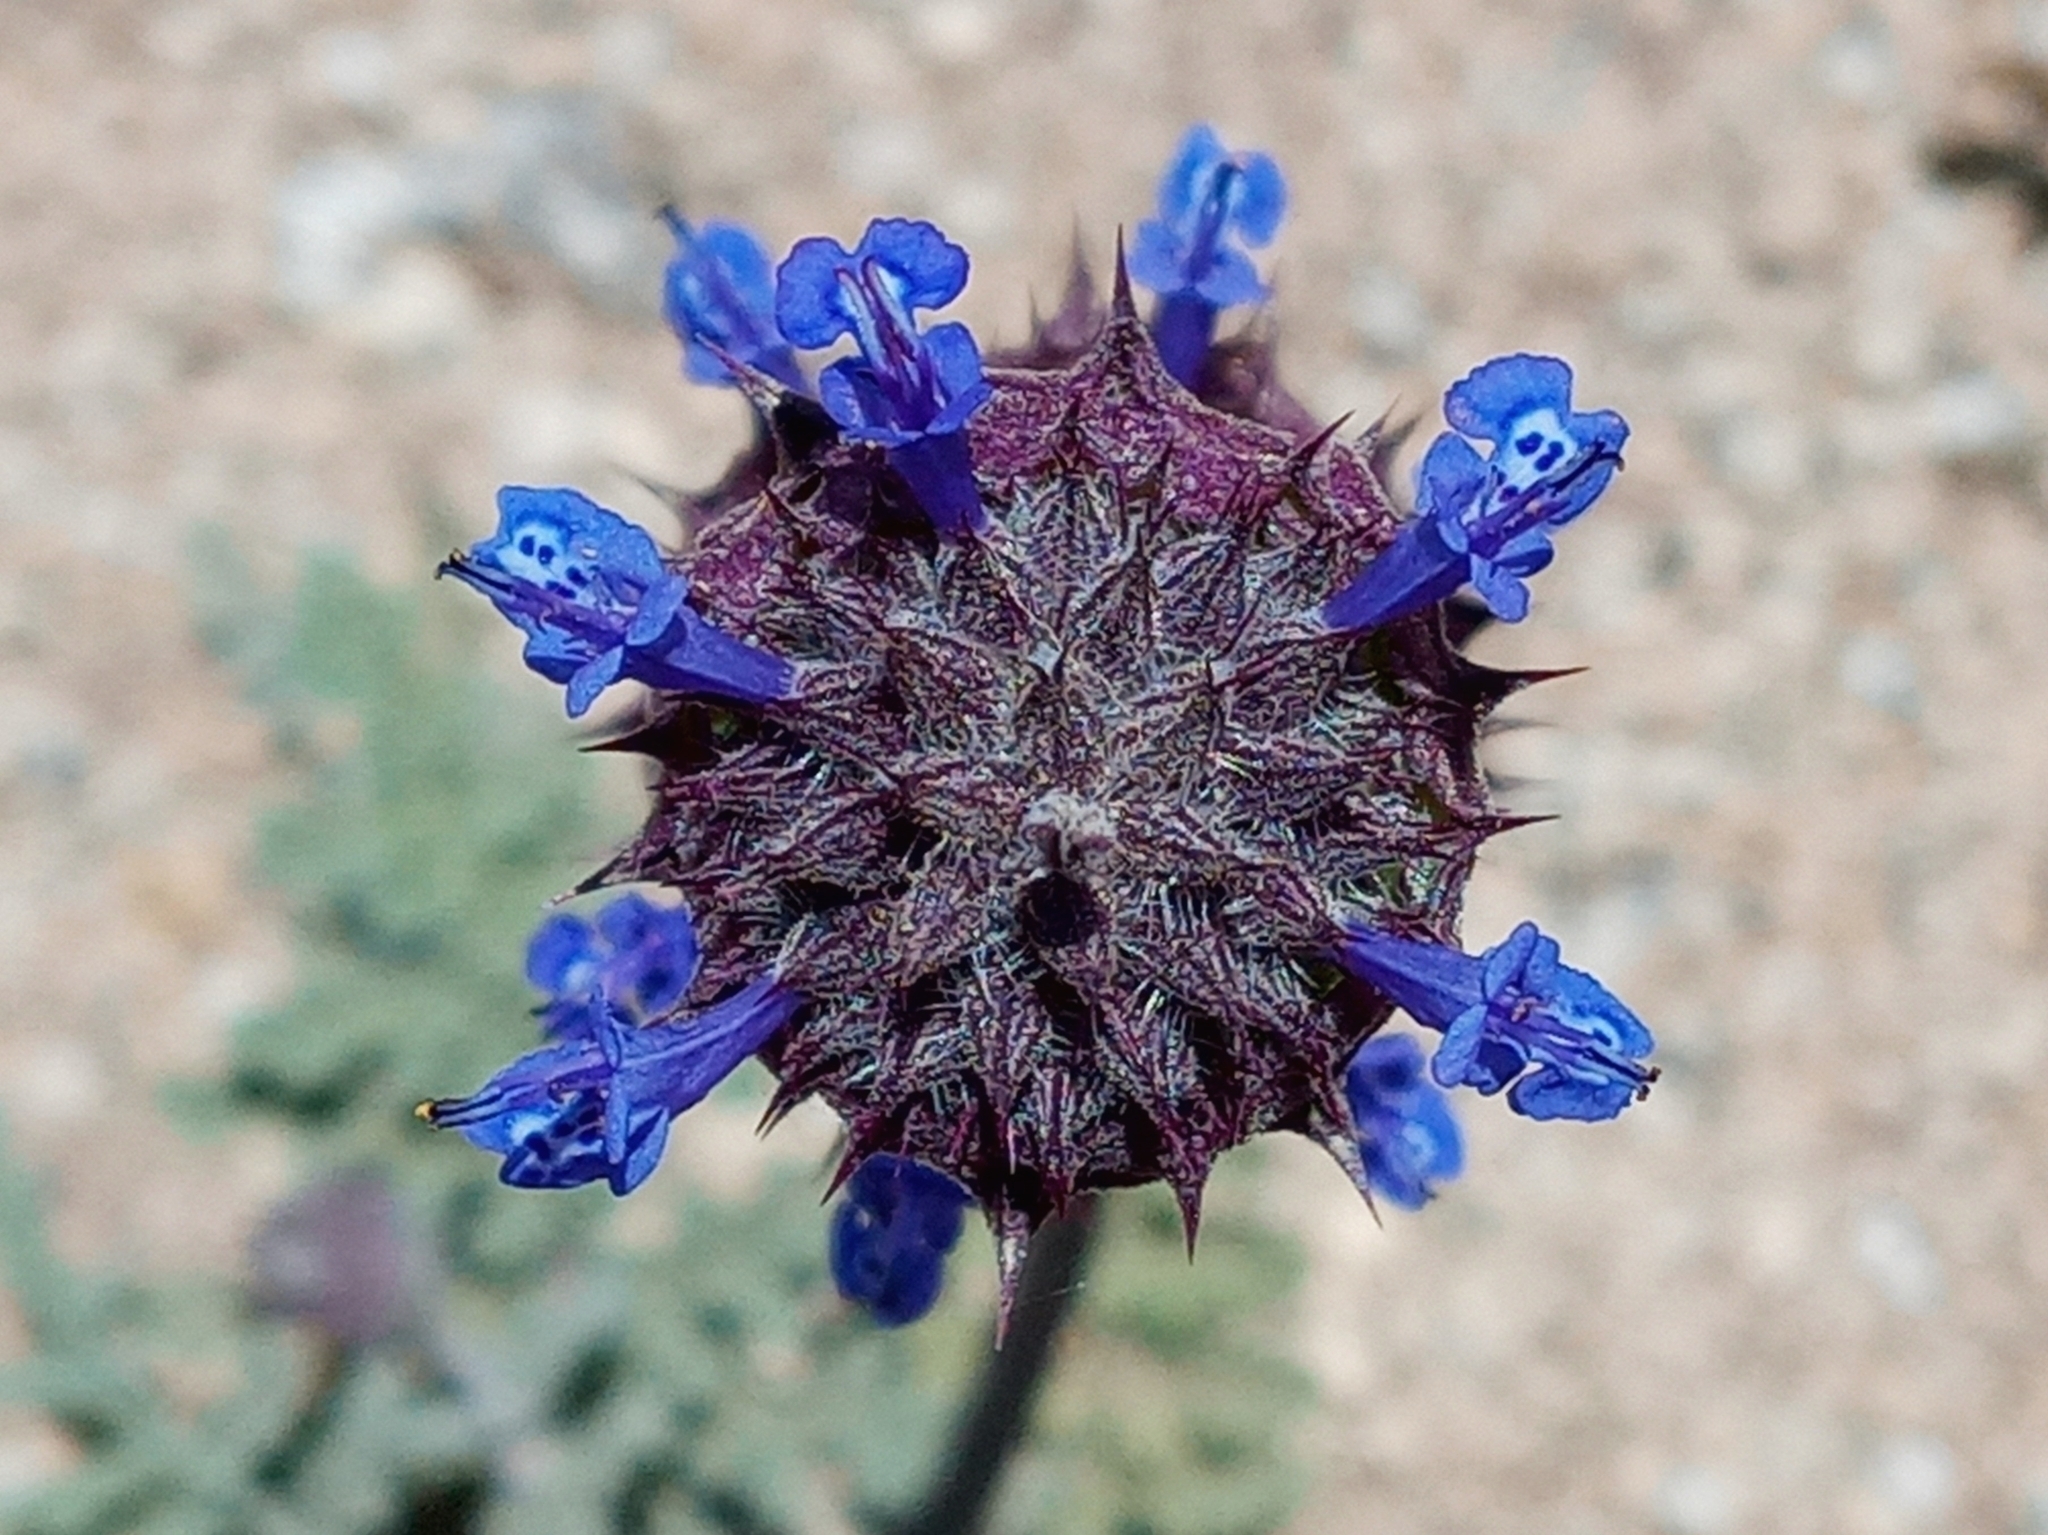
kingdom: Plantae
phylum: Tracheophyta
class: Magnoliopsida
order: Lamiales
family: Lamiaceae
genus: Salvia
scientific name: Salvia columbariae
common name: Chia
